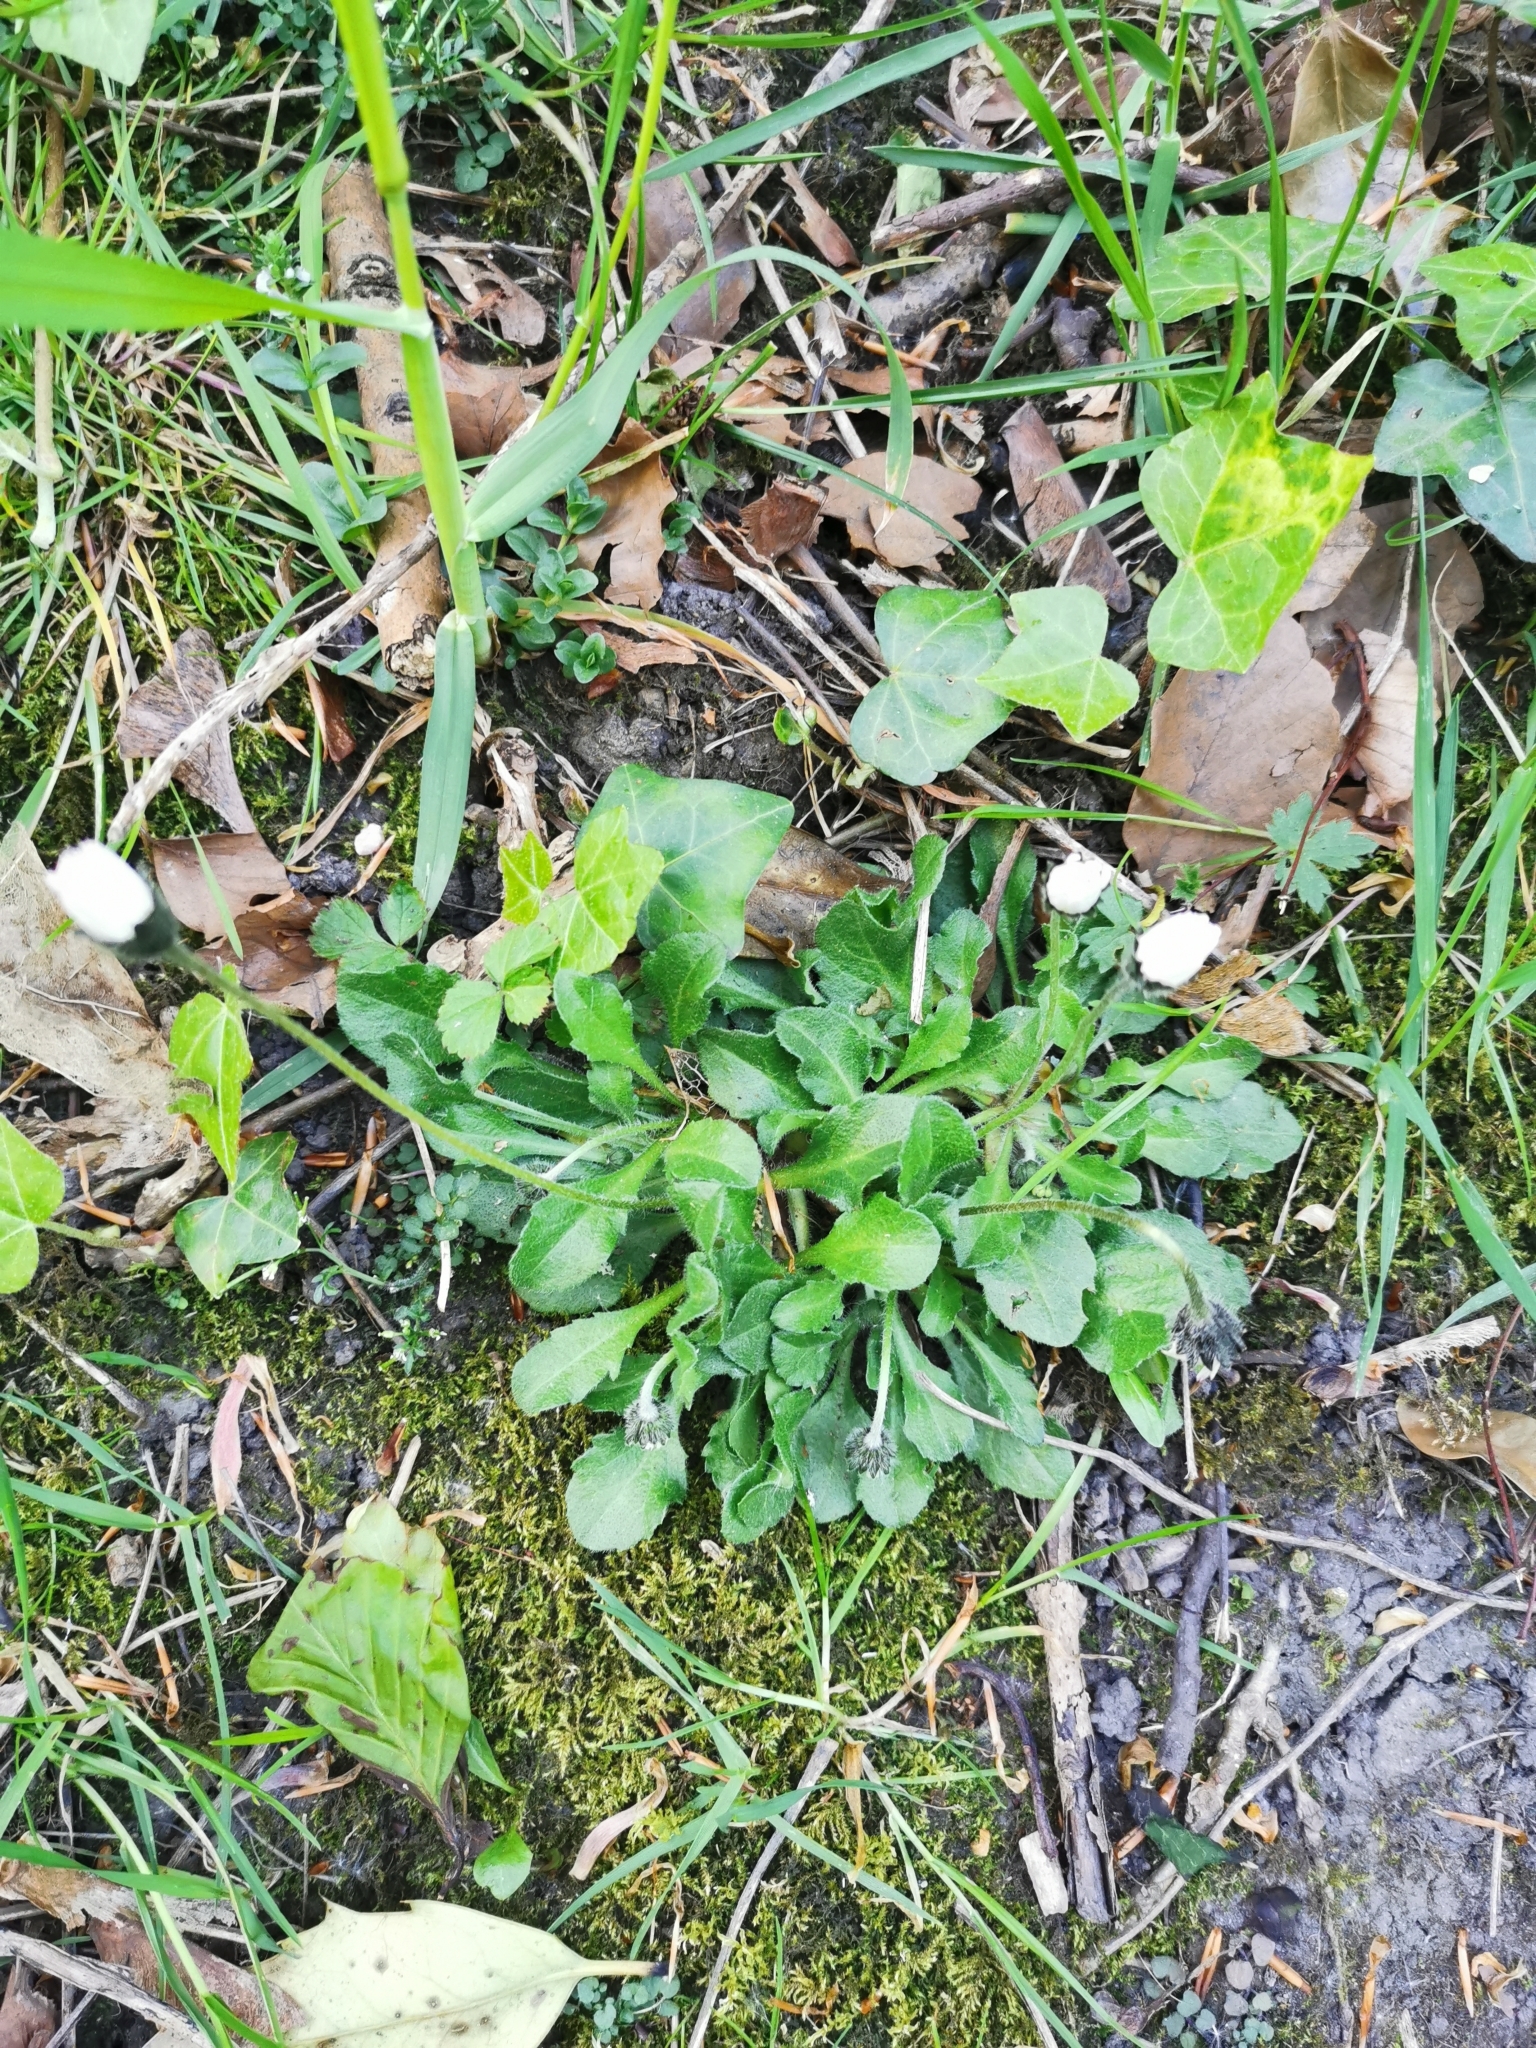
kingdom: Plantae
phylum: Tracheophyta
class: Magnoliopsida
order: Asterales
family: Asteraceae
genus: Bellis
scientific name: Bellis perennis
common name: Lawndaisy
